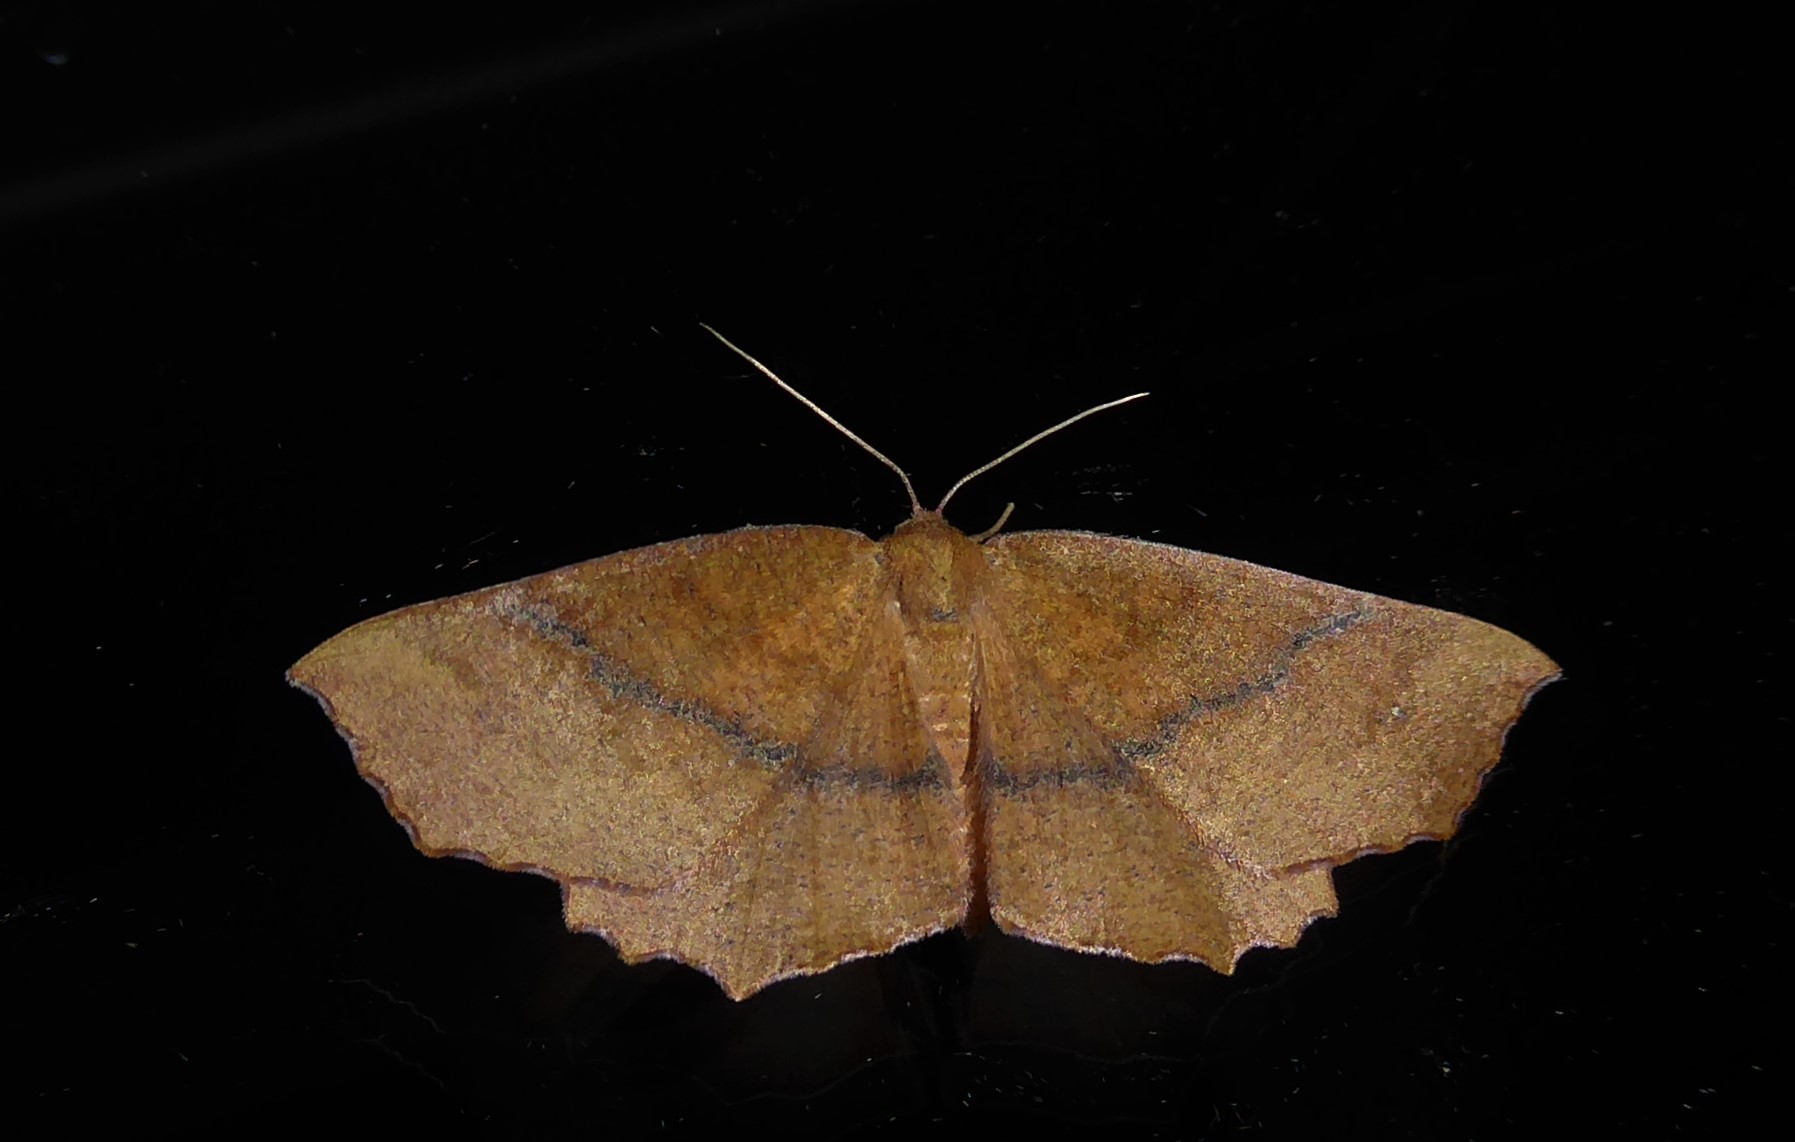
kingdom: Animalia
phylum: Arthropoda
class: Insecta
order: Lepidoptera
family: Geometridae
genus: Xyridacma
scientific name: Xyridacma ustaria
